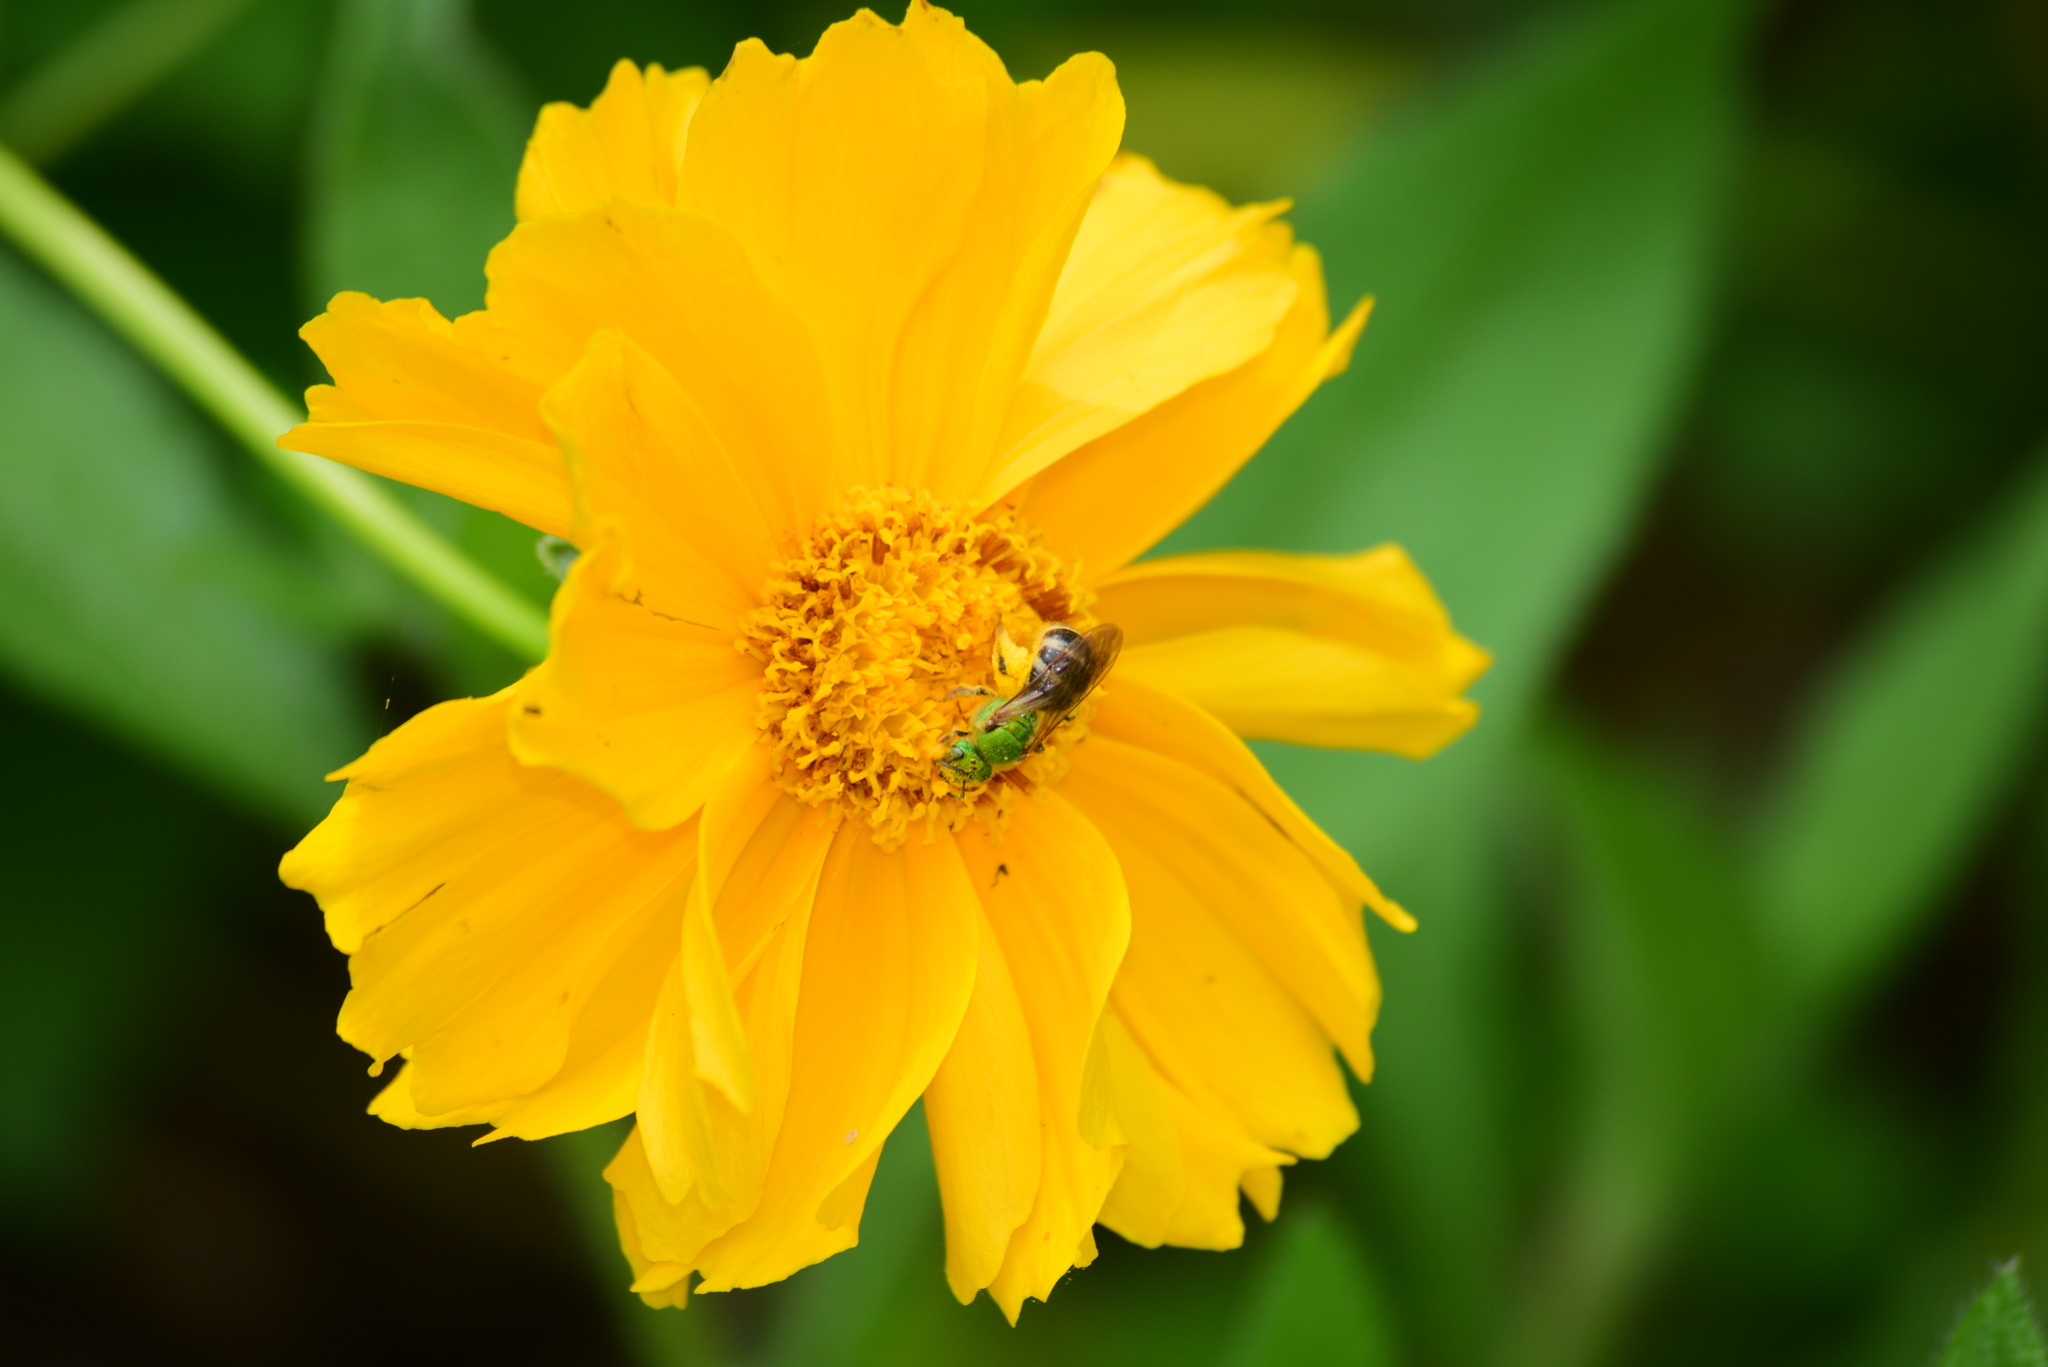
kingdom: Animalia
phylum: Arthropoda
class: Insecta
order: Hymenoptera
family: Halictidae
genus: Agapostemon
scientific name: Agapostemon virescens
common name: Bicolored striped sweat bee
